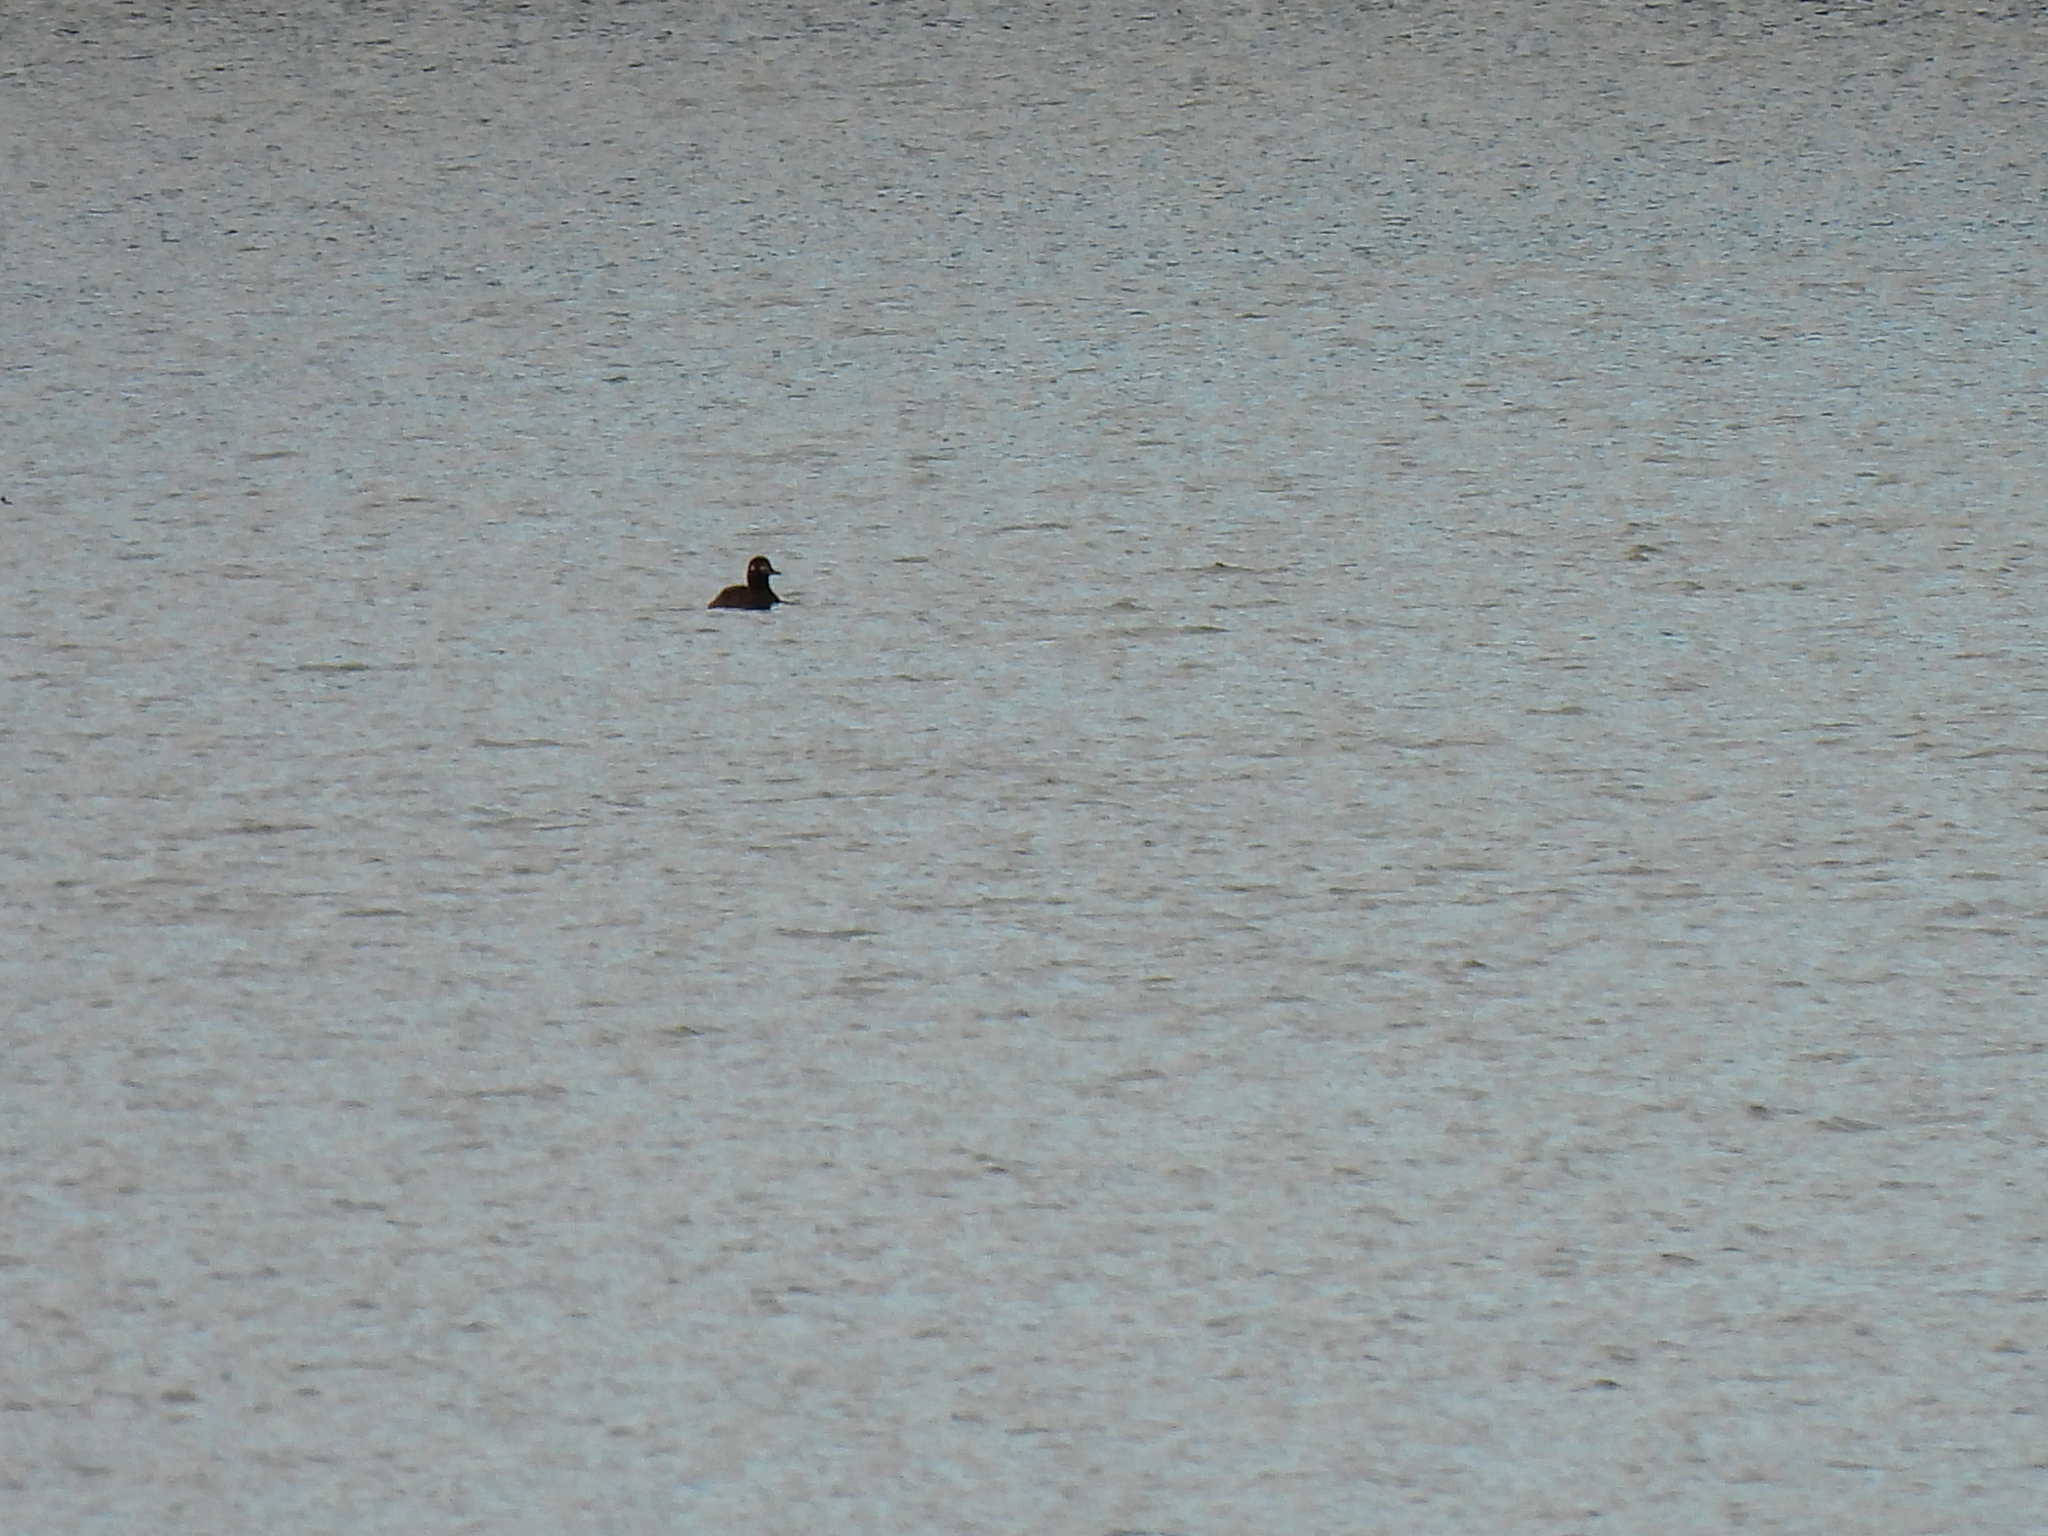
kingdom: Animalia
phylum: Chordata
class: Aves
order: Anseriformes
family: Anatidae
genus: Melanitta
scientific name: Melanitta fusca
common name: Velvet scoter
